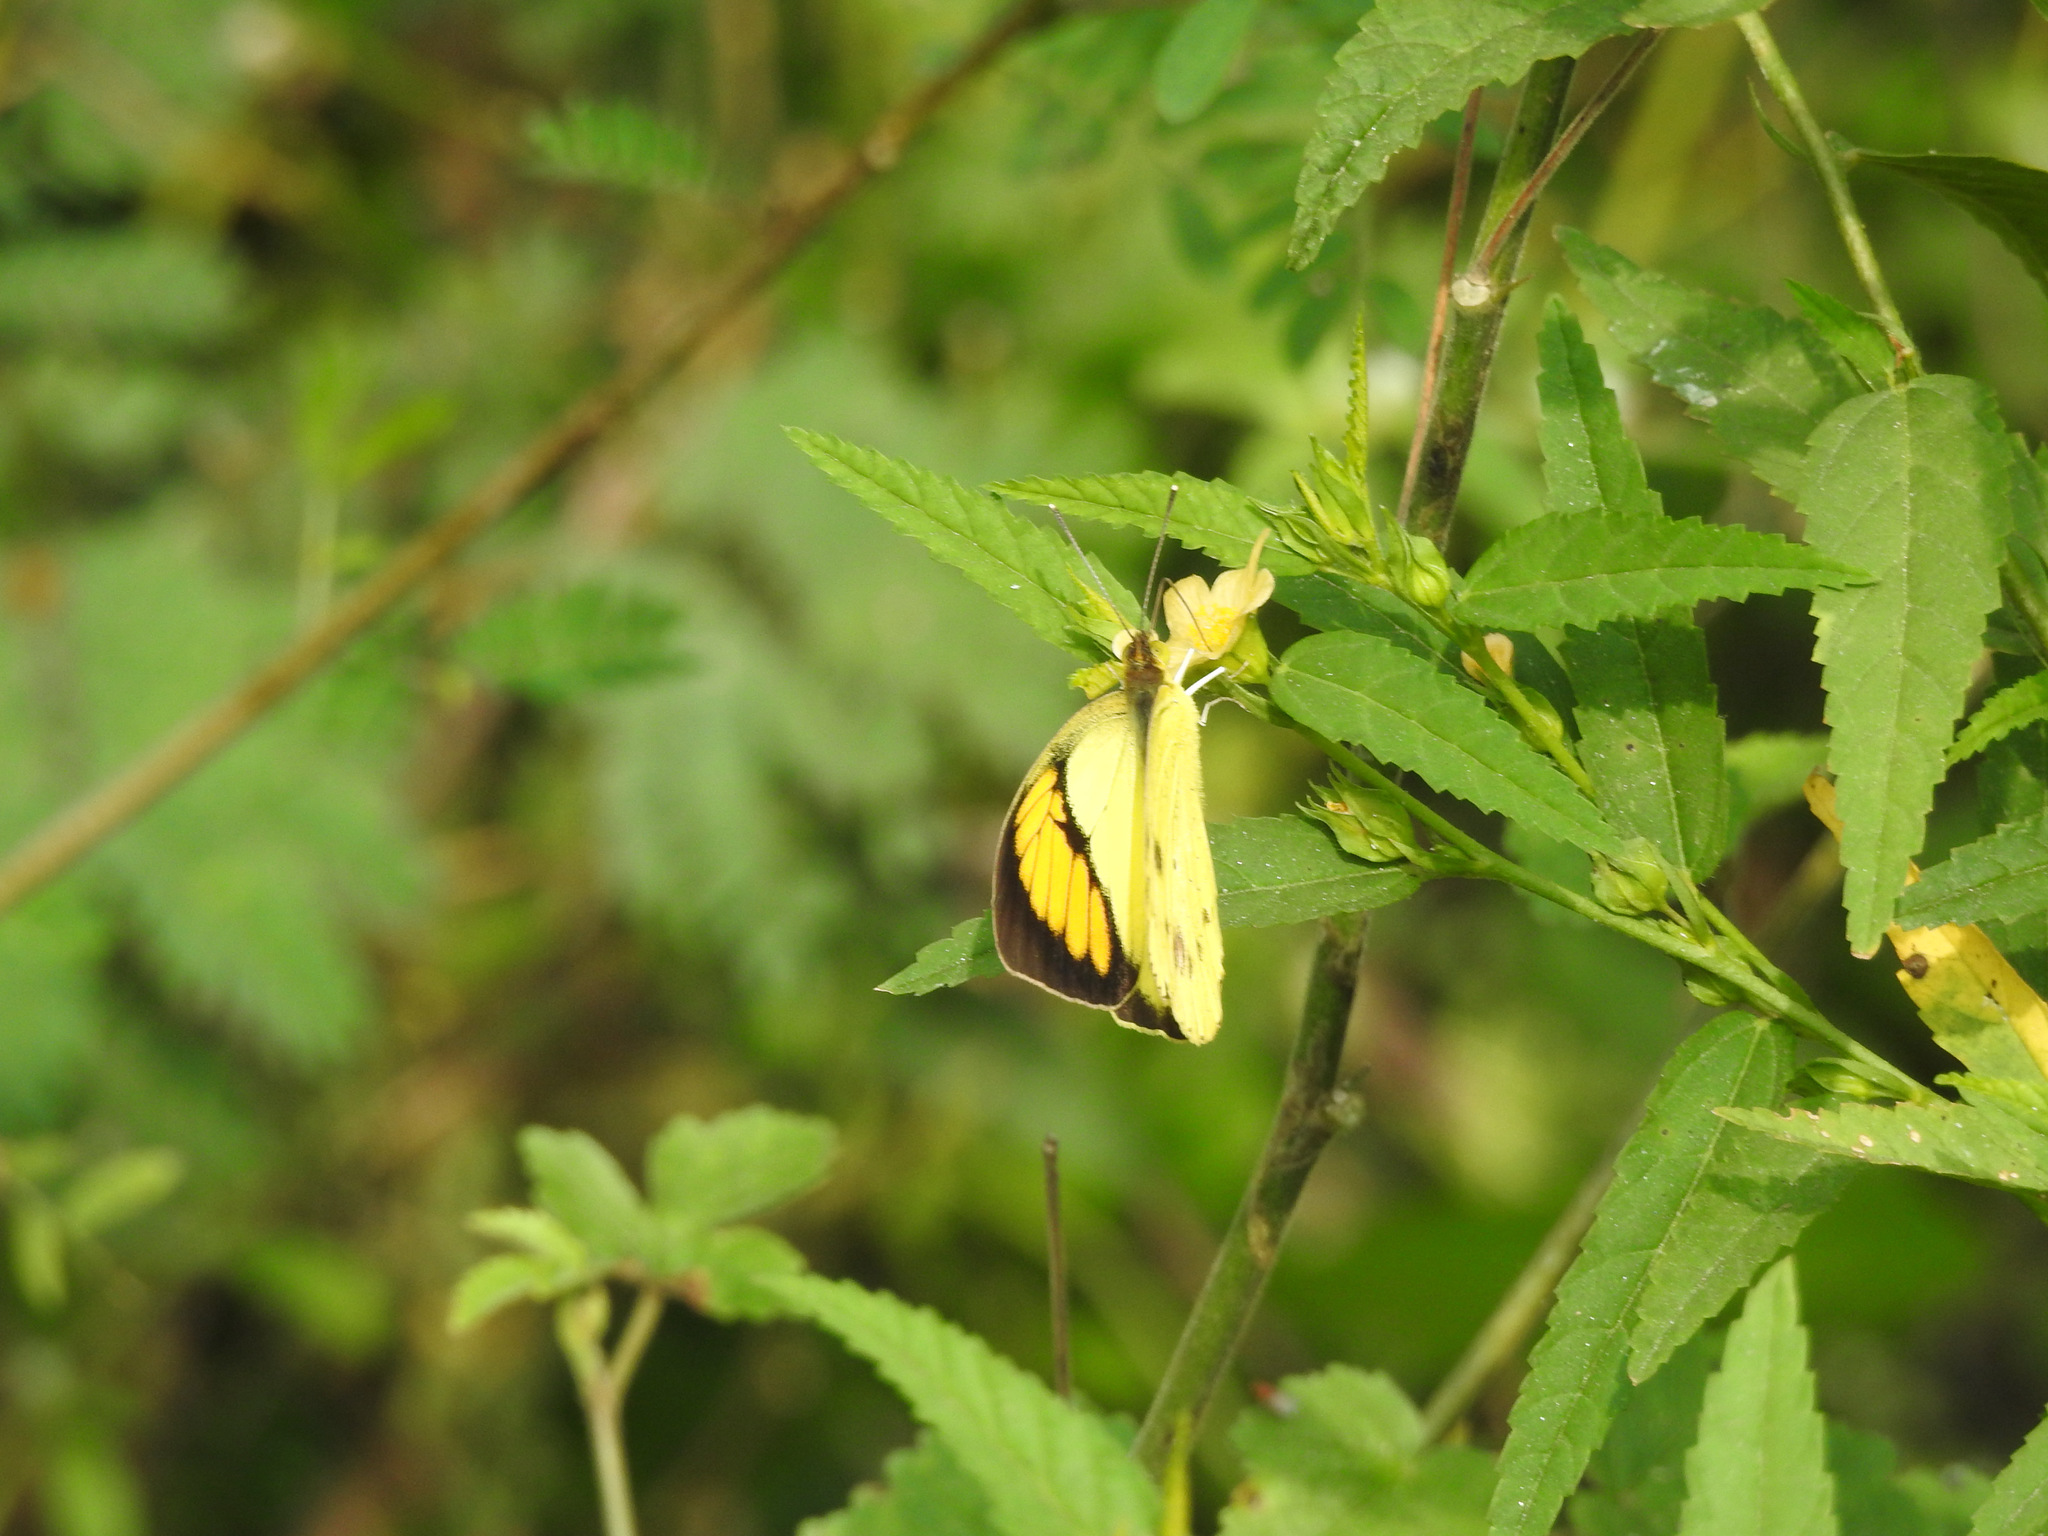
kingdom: Animalia
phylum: Arthropoda
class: Insecta
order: Lepidoptera
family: Pieridae
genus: Ixias
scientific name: Ixias pyrene
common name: Yellow orange tip
